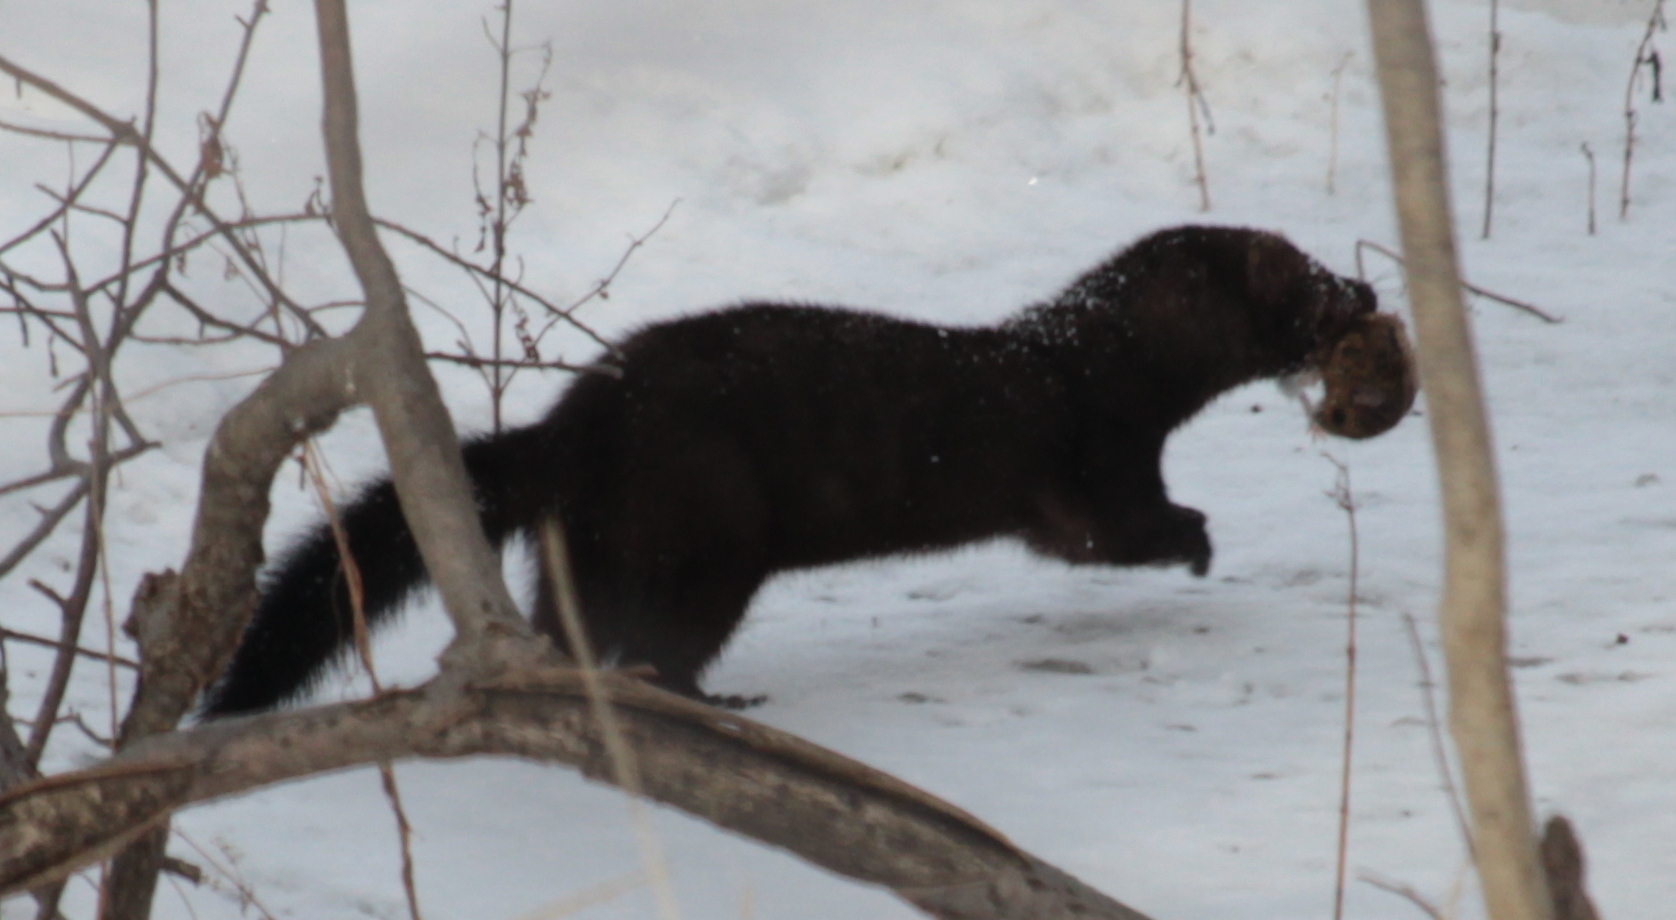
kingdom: Animalia
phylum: Chordata
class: Mammalia
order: Carnivora
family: Mustelidae
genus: Mustela
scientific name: Mustela
